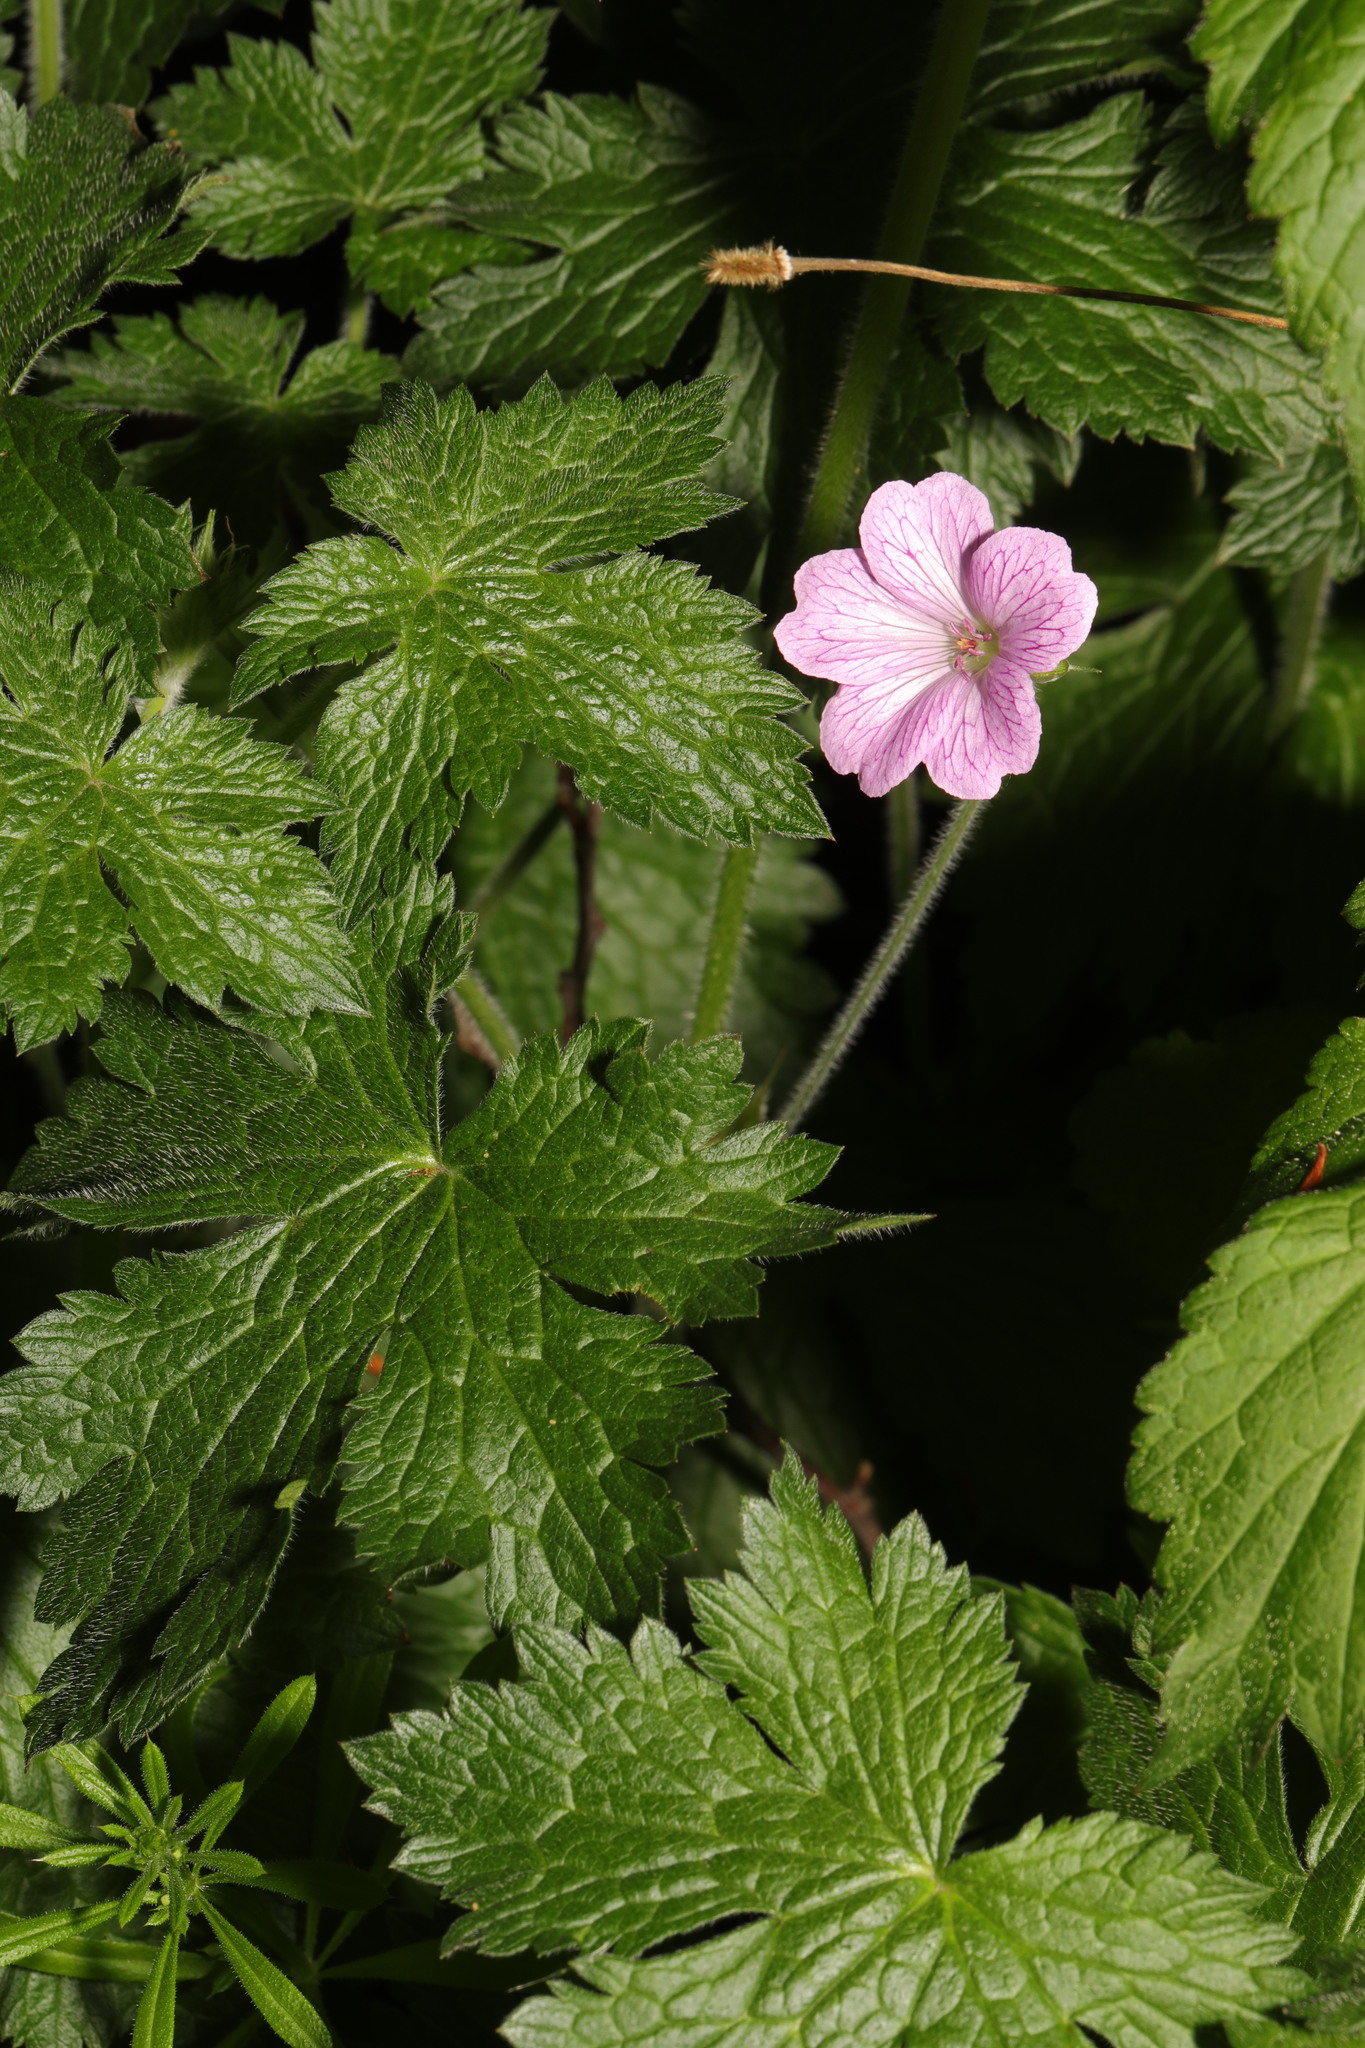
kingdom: Plantae
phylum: Tracheophyta
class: Magnoliopsida
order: Geraniales
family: Geraniaceae
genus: Geranium
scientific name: Geranium oxonianum
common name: Druce's crane's-bill
